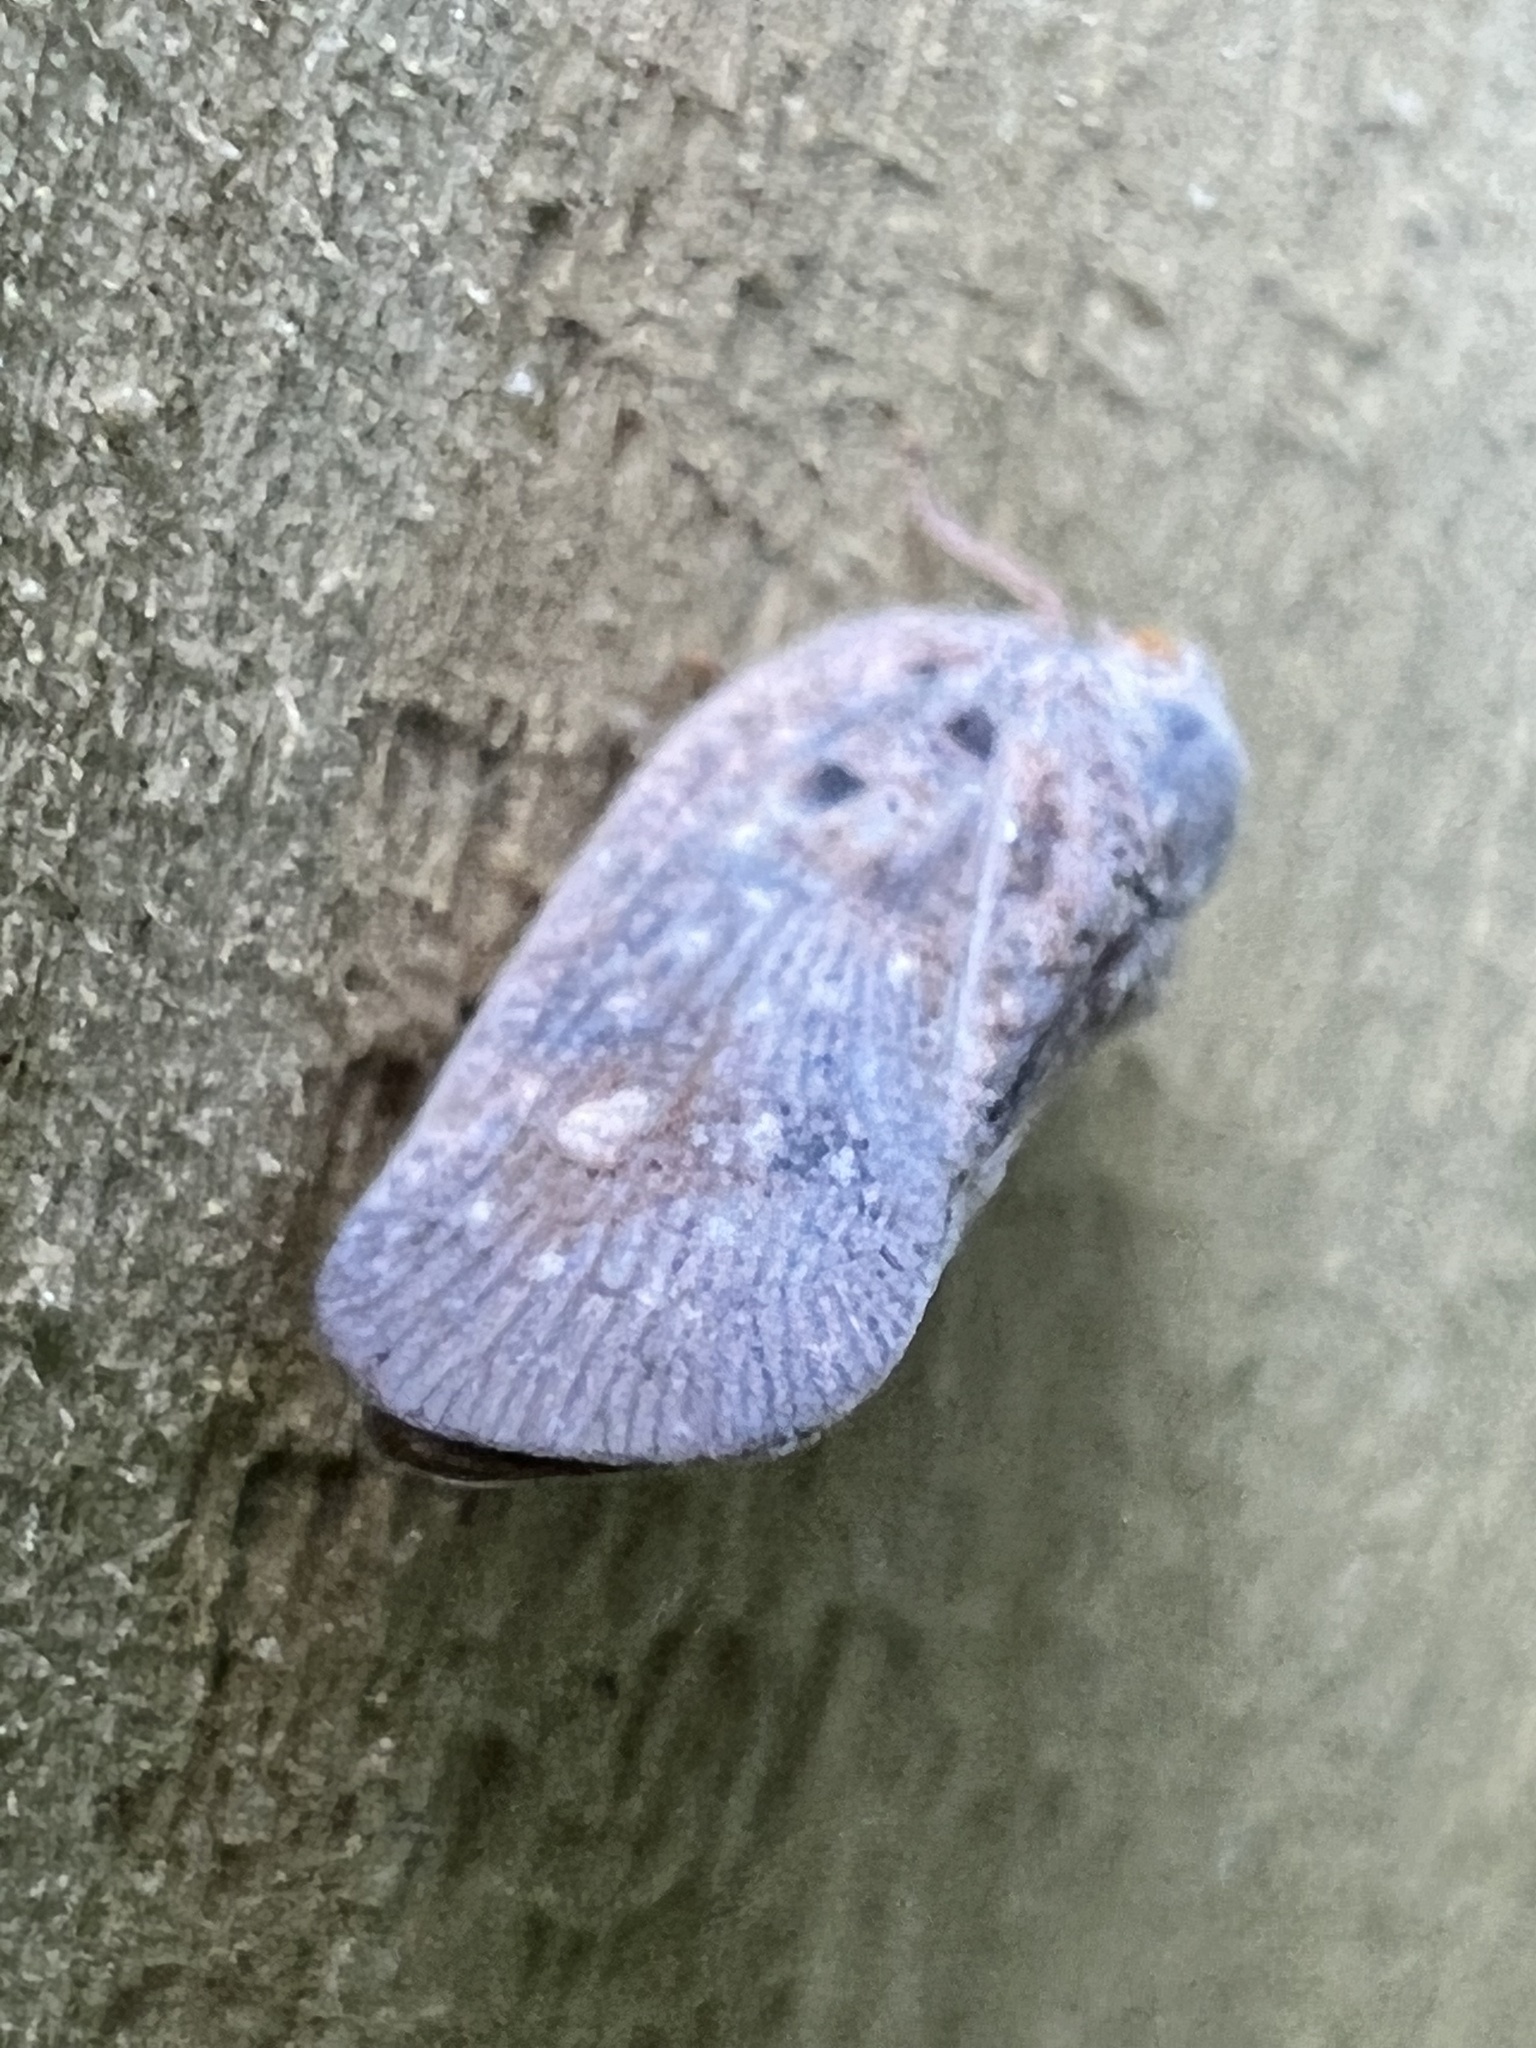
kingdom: Animalia
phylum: Arthropoda
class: Insecta
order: Hemiptera
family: Flatidae
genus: Metcalfa
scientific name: Metcalfa pruinosa
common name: Citrus flatid planthopper
